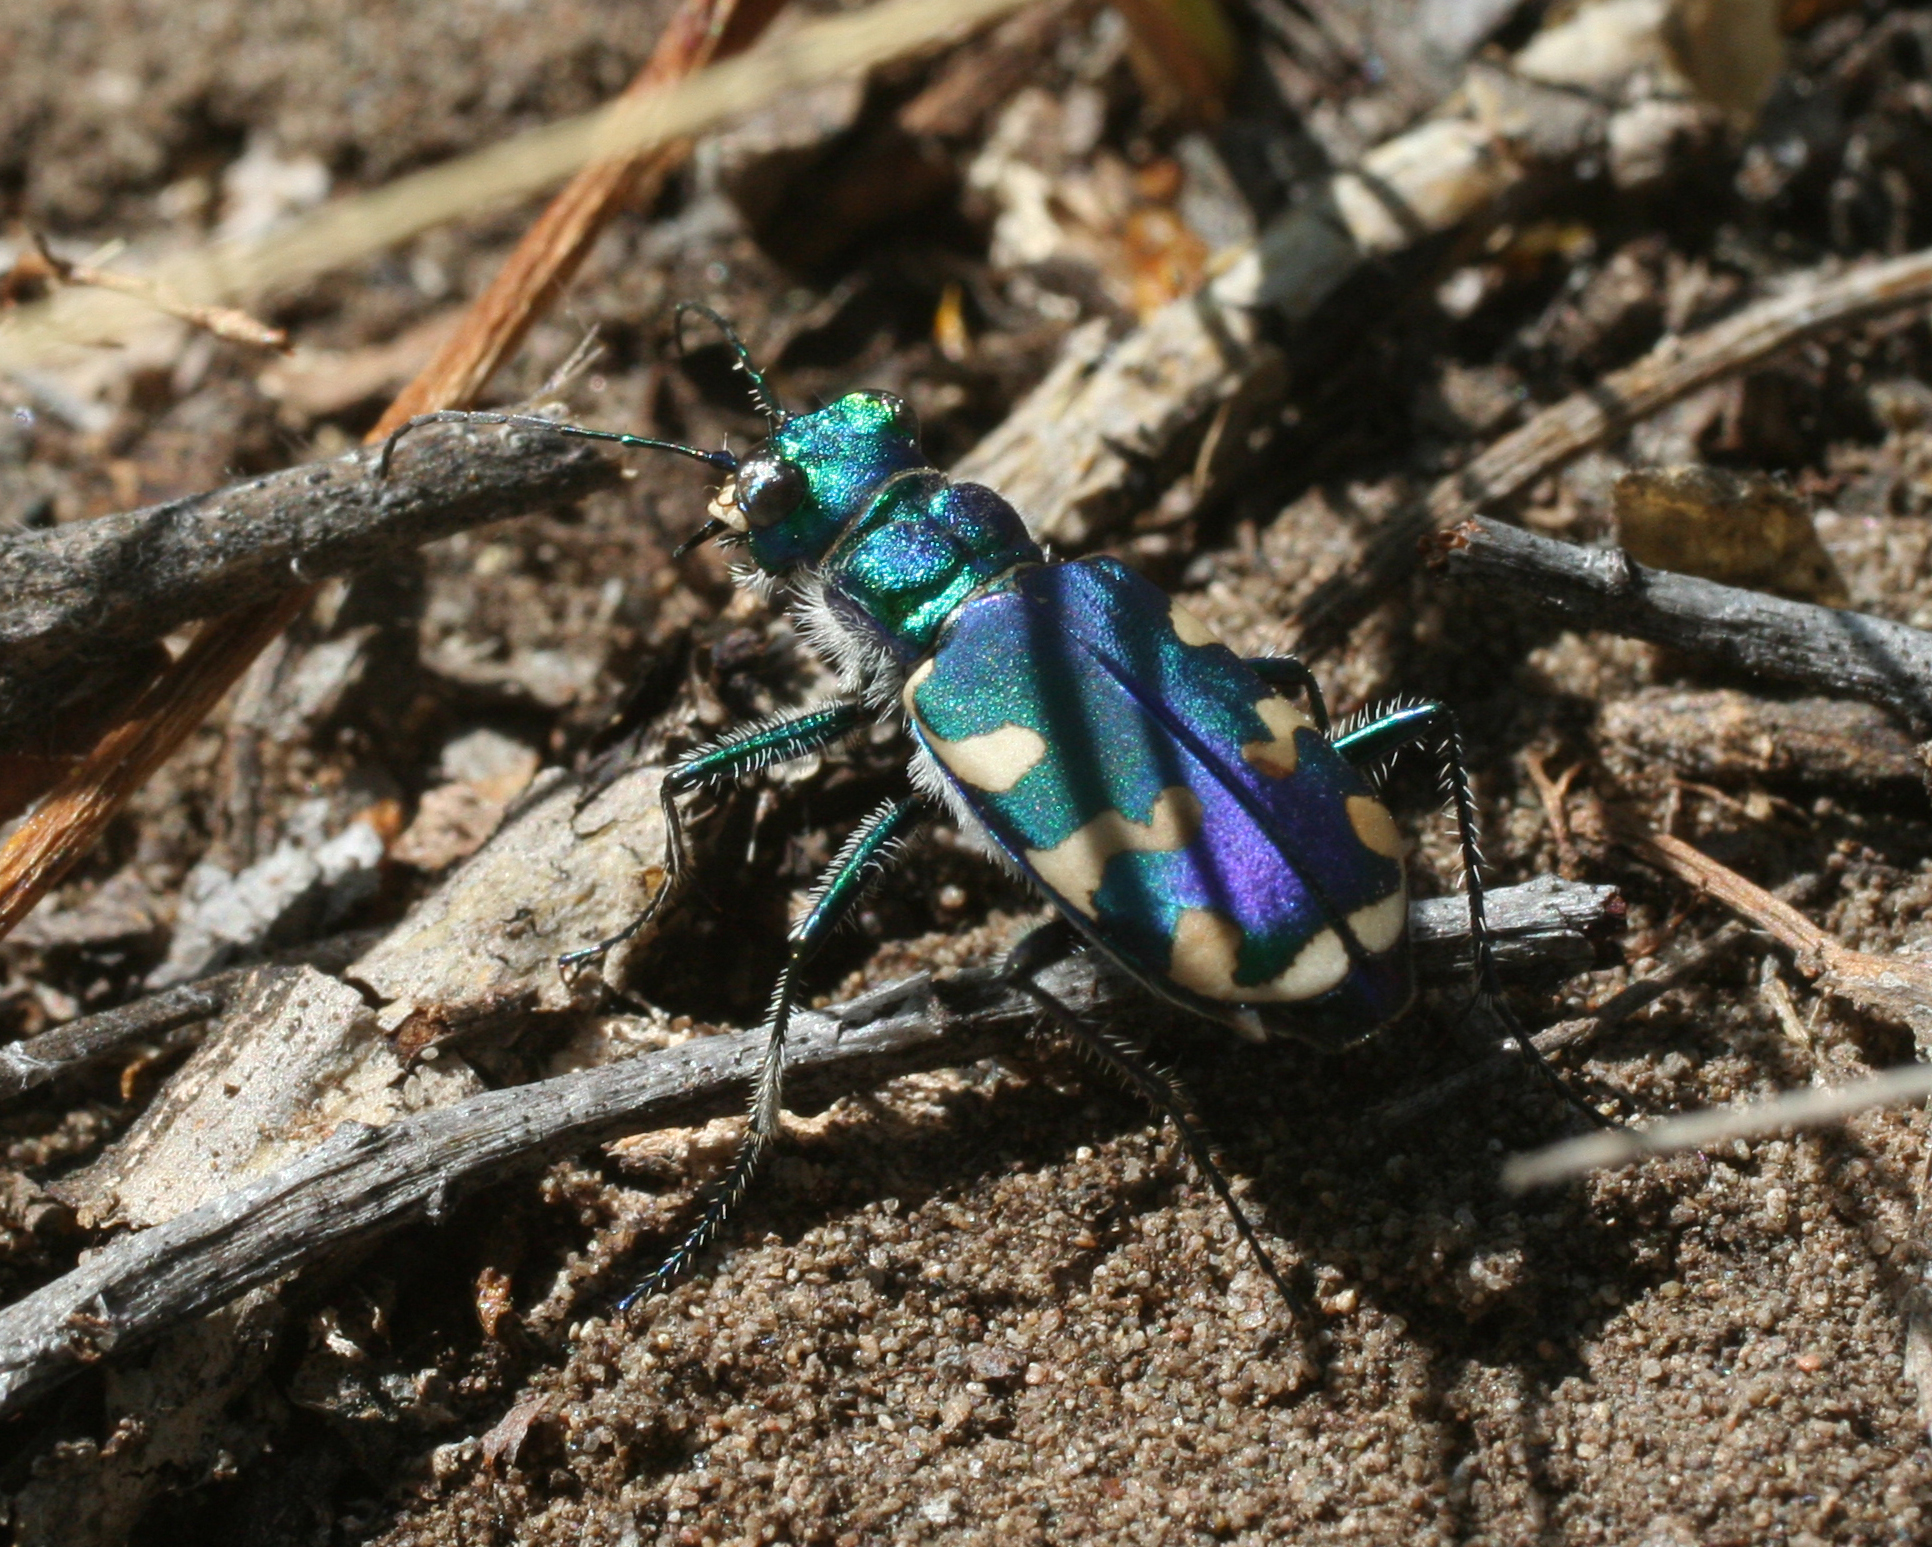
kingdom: Animalia
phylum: Arthropoda
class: Insecta
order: Coleoptera
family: Carabidae
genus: Cicindela
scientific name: Cicindela coerulea
